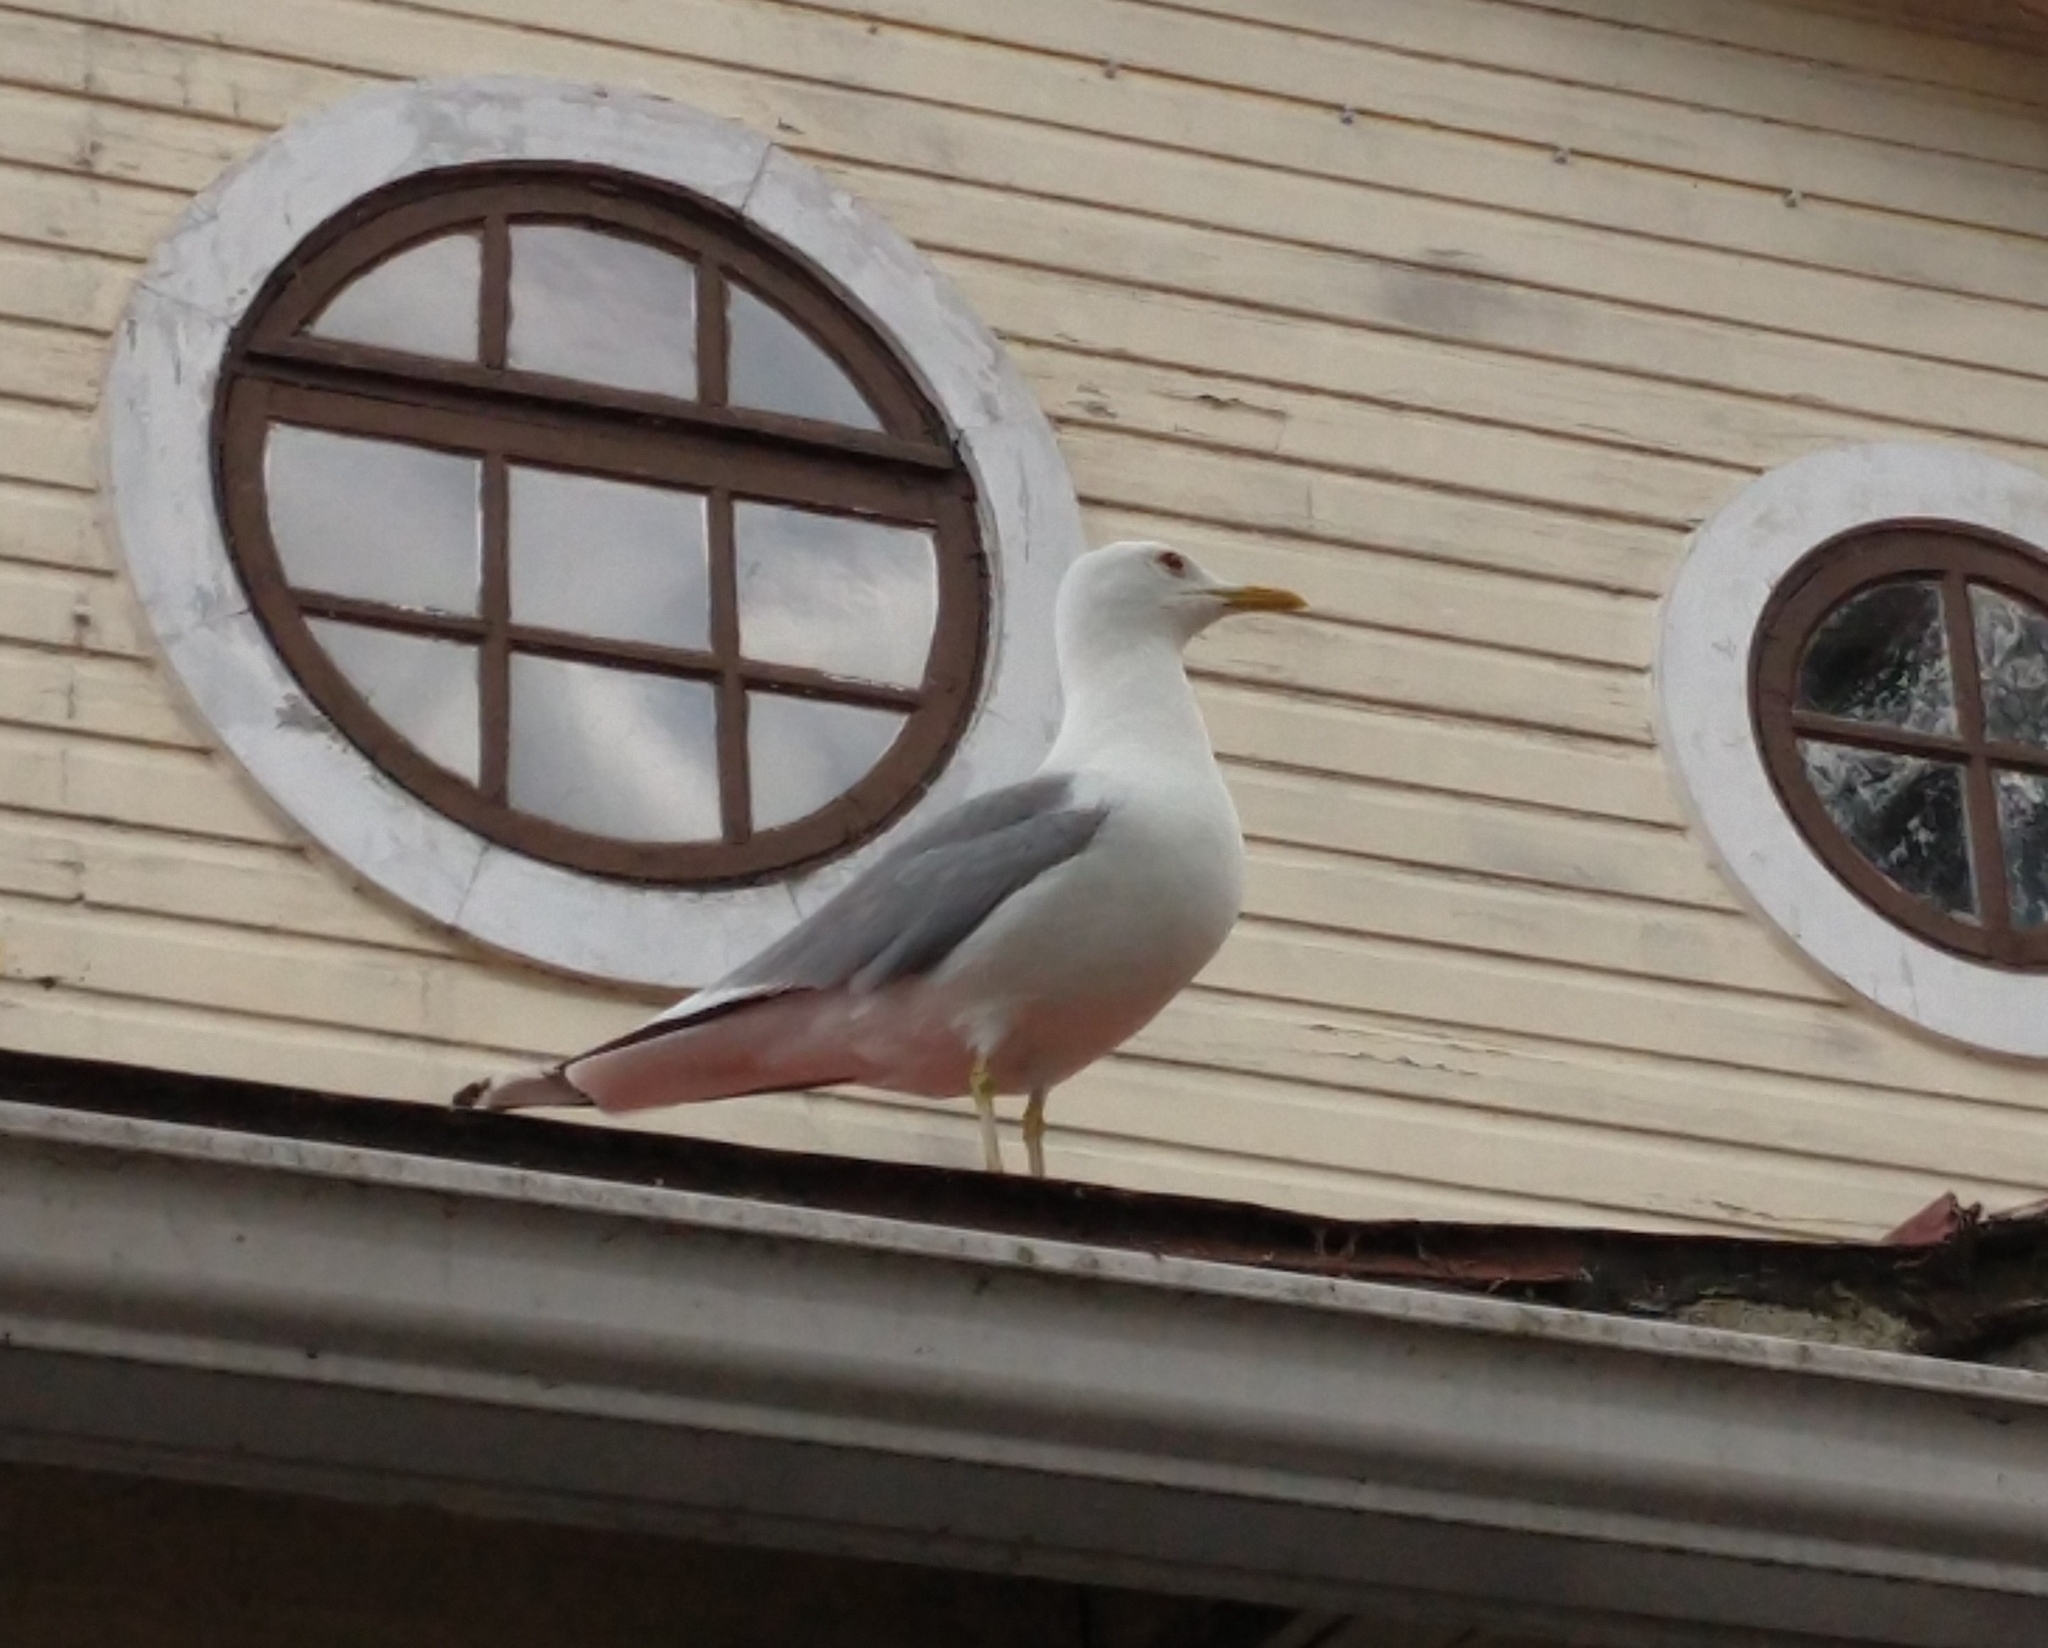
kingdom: Animalia
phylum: Chordata
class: Aves
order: Charadriiformes
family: Laridae
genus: Larus
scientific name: Larus canus
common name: Mew gull
